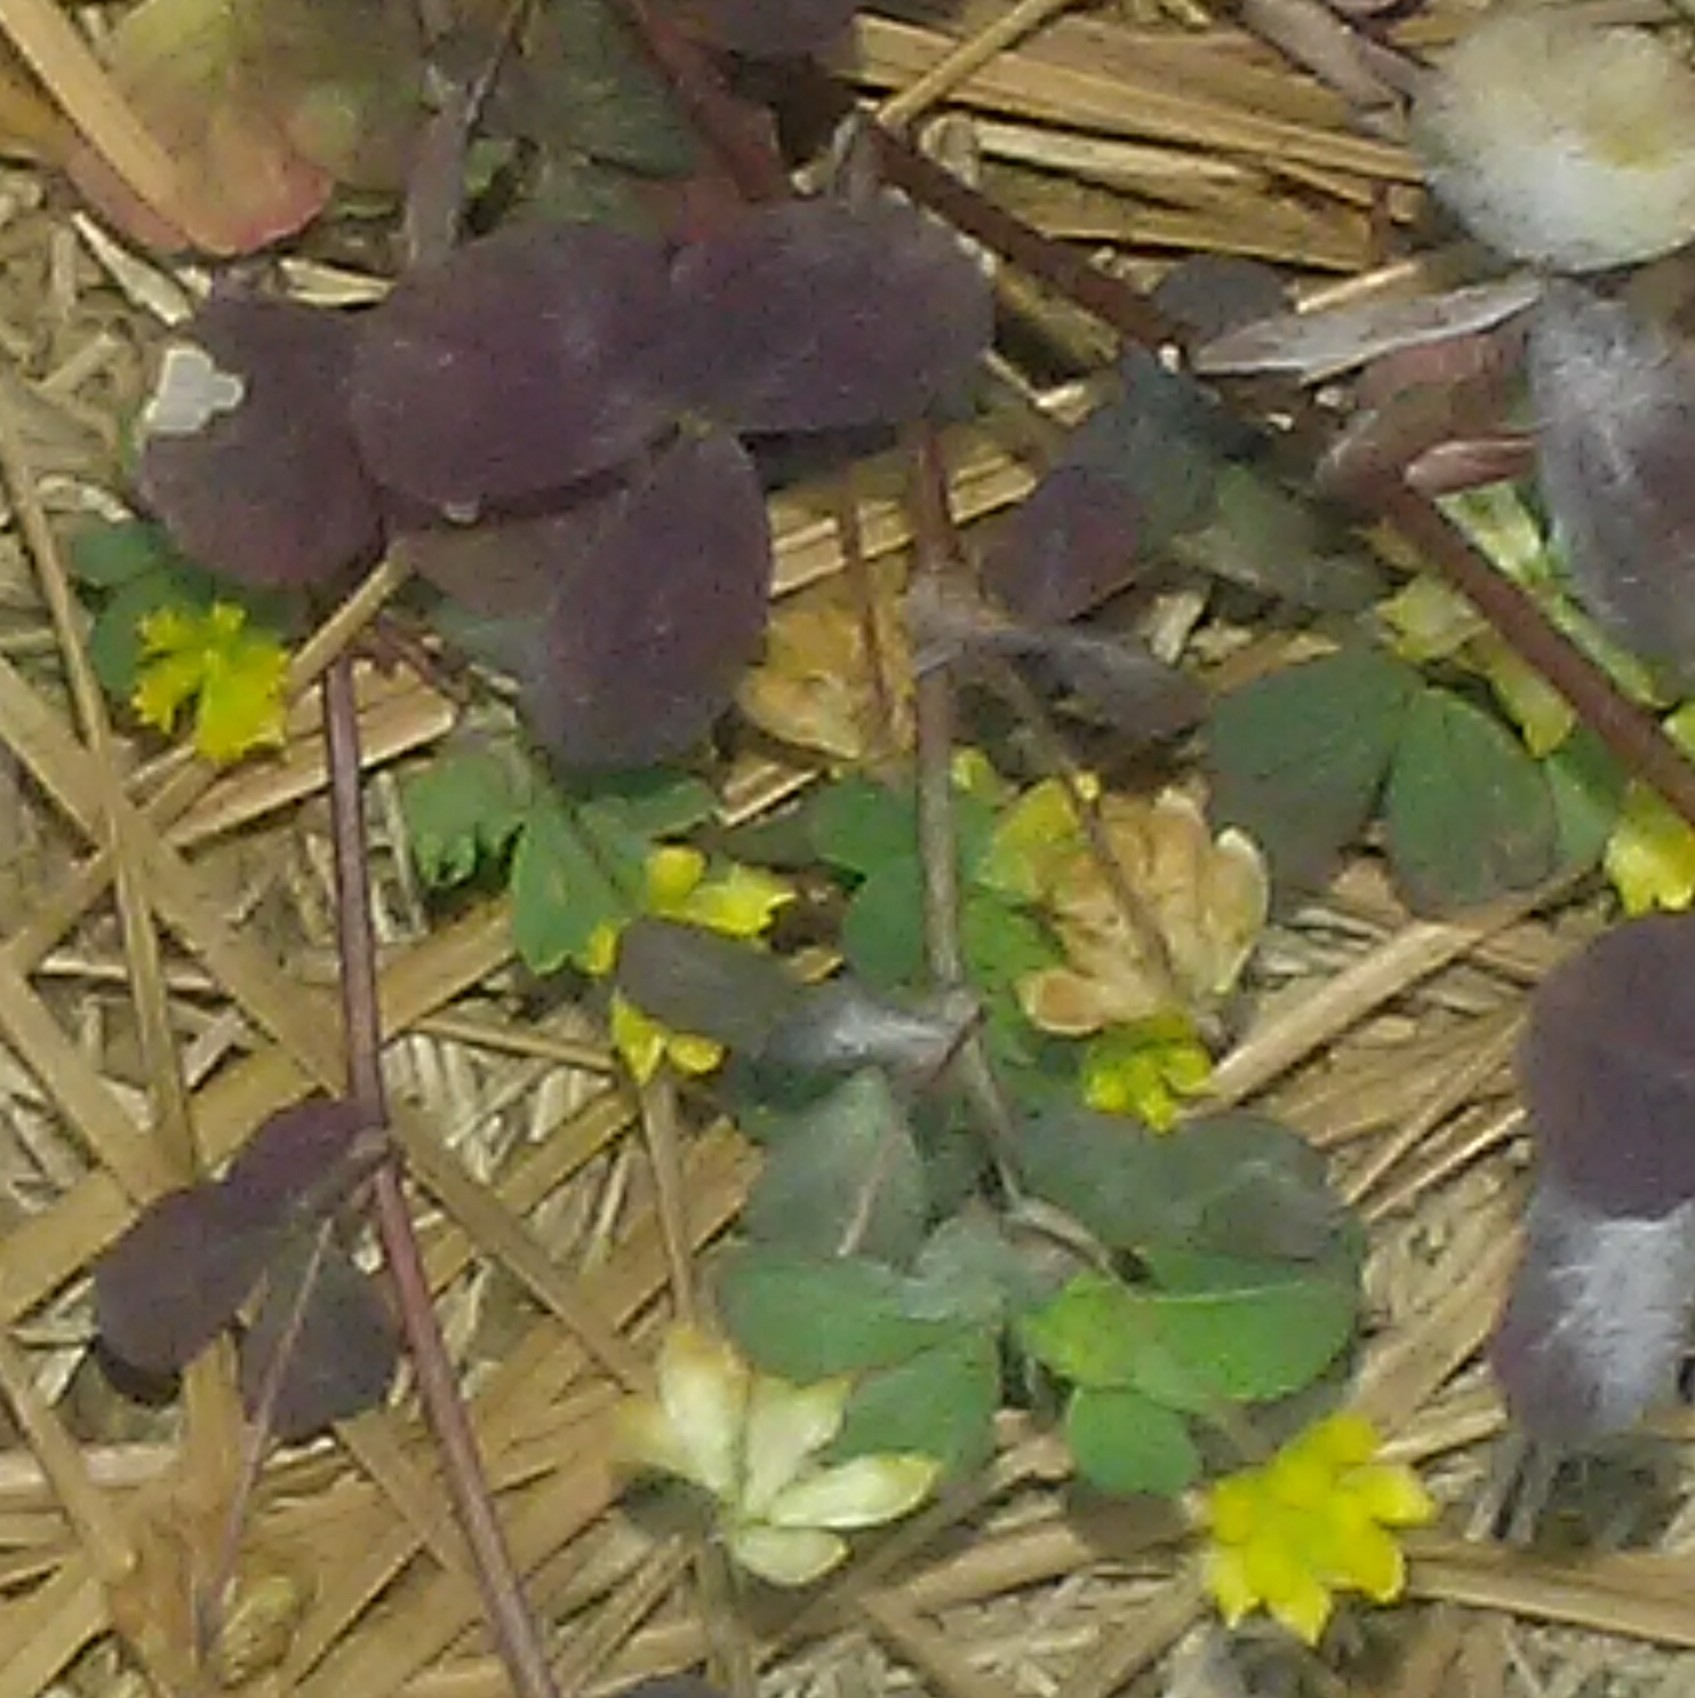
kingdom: Plantae
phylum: Tracheophyta
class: Magnoliopsida
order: Fabales
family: Fabaceae
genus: Trifolium
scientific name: Trifolium dubium
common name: Suckling clover
